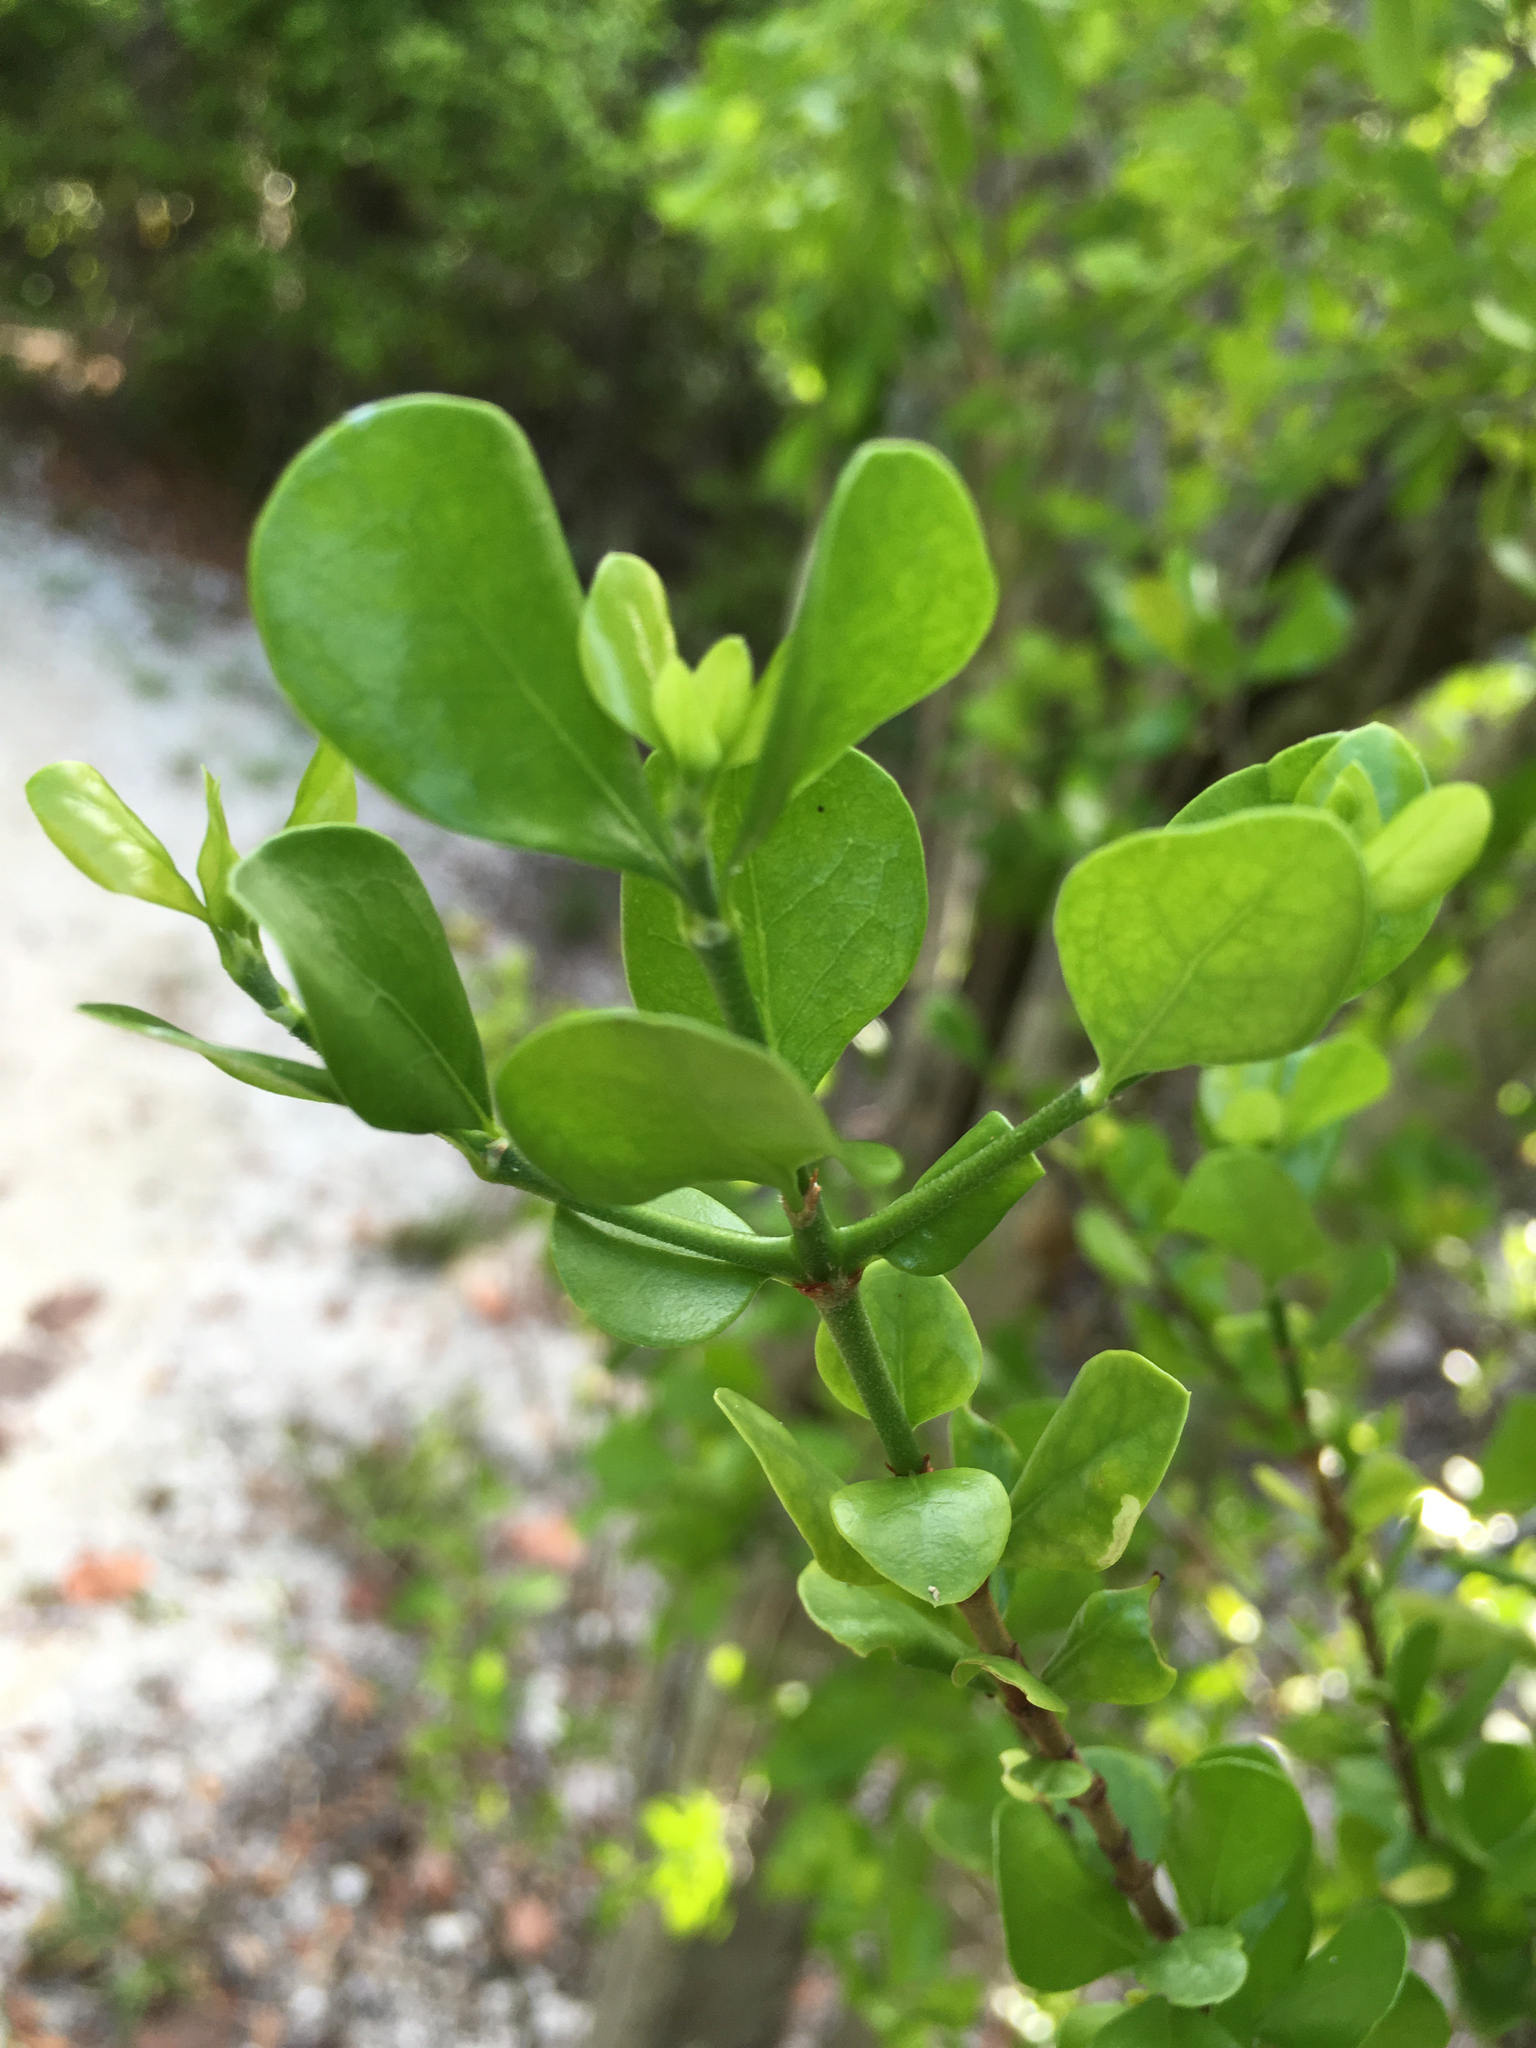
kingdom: Plantae
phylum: Tracheophyta
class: Magnoliopsida
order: Gentianales
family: Rubiaceae
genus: Randia
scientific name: Randia aculeata
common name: Inkberry
